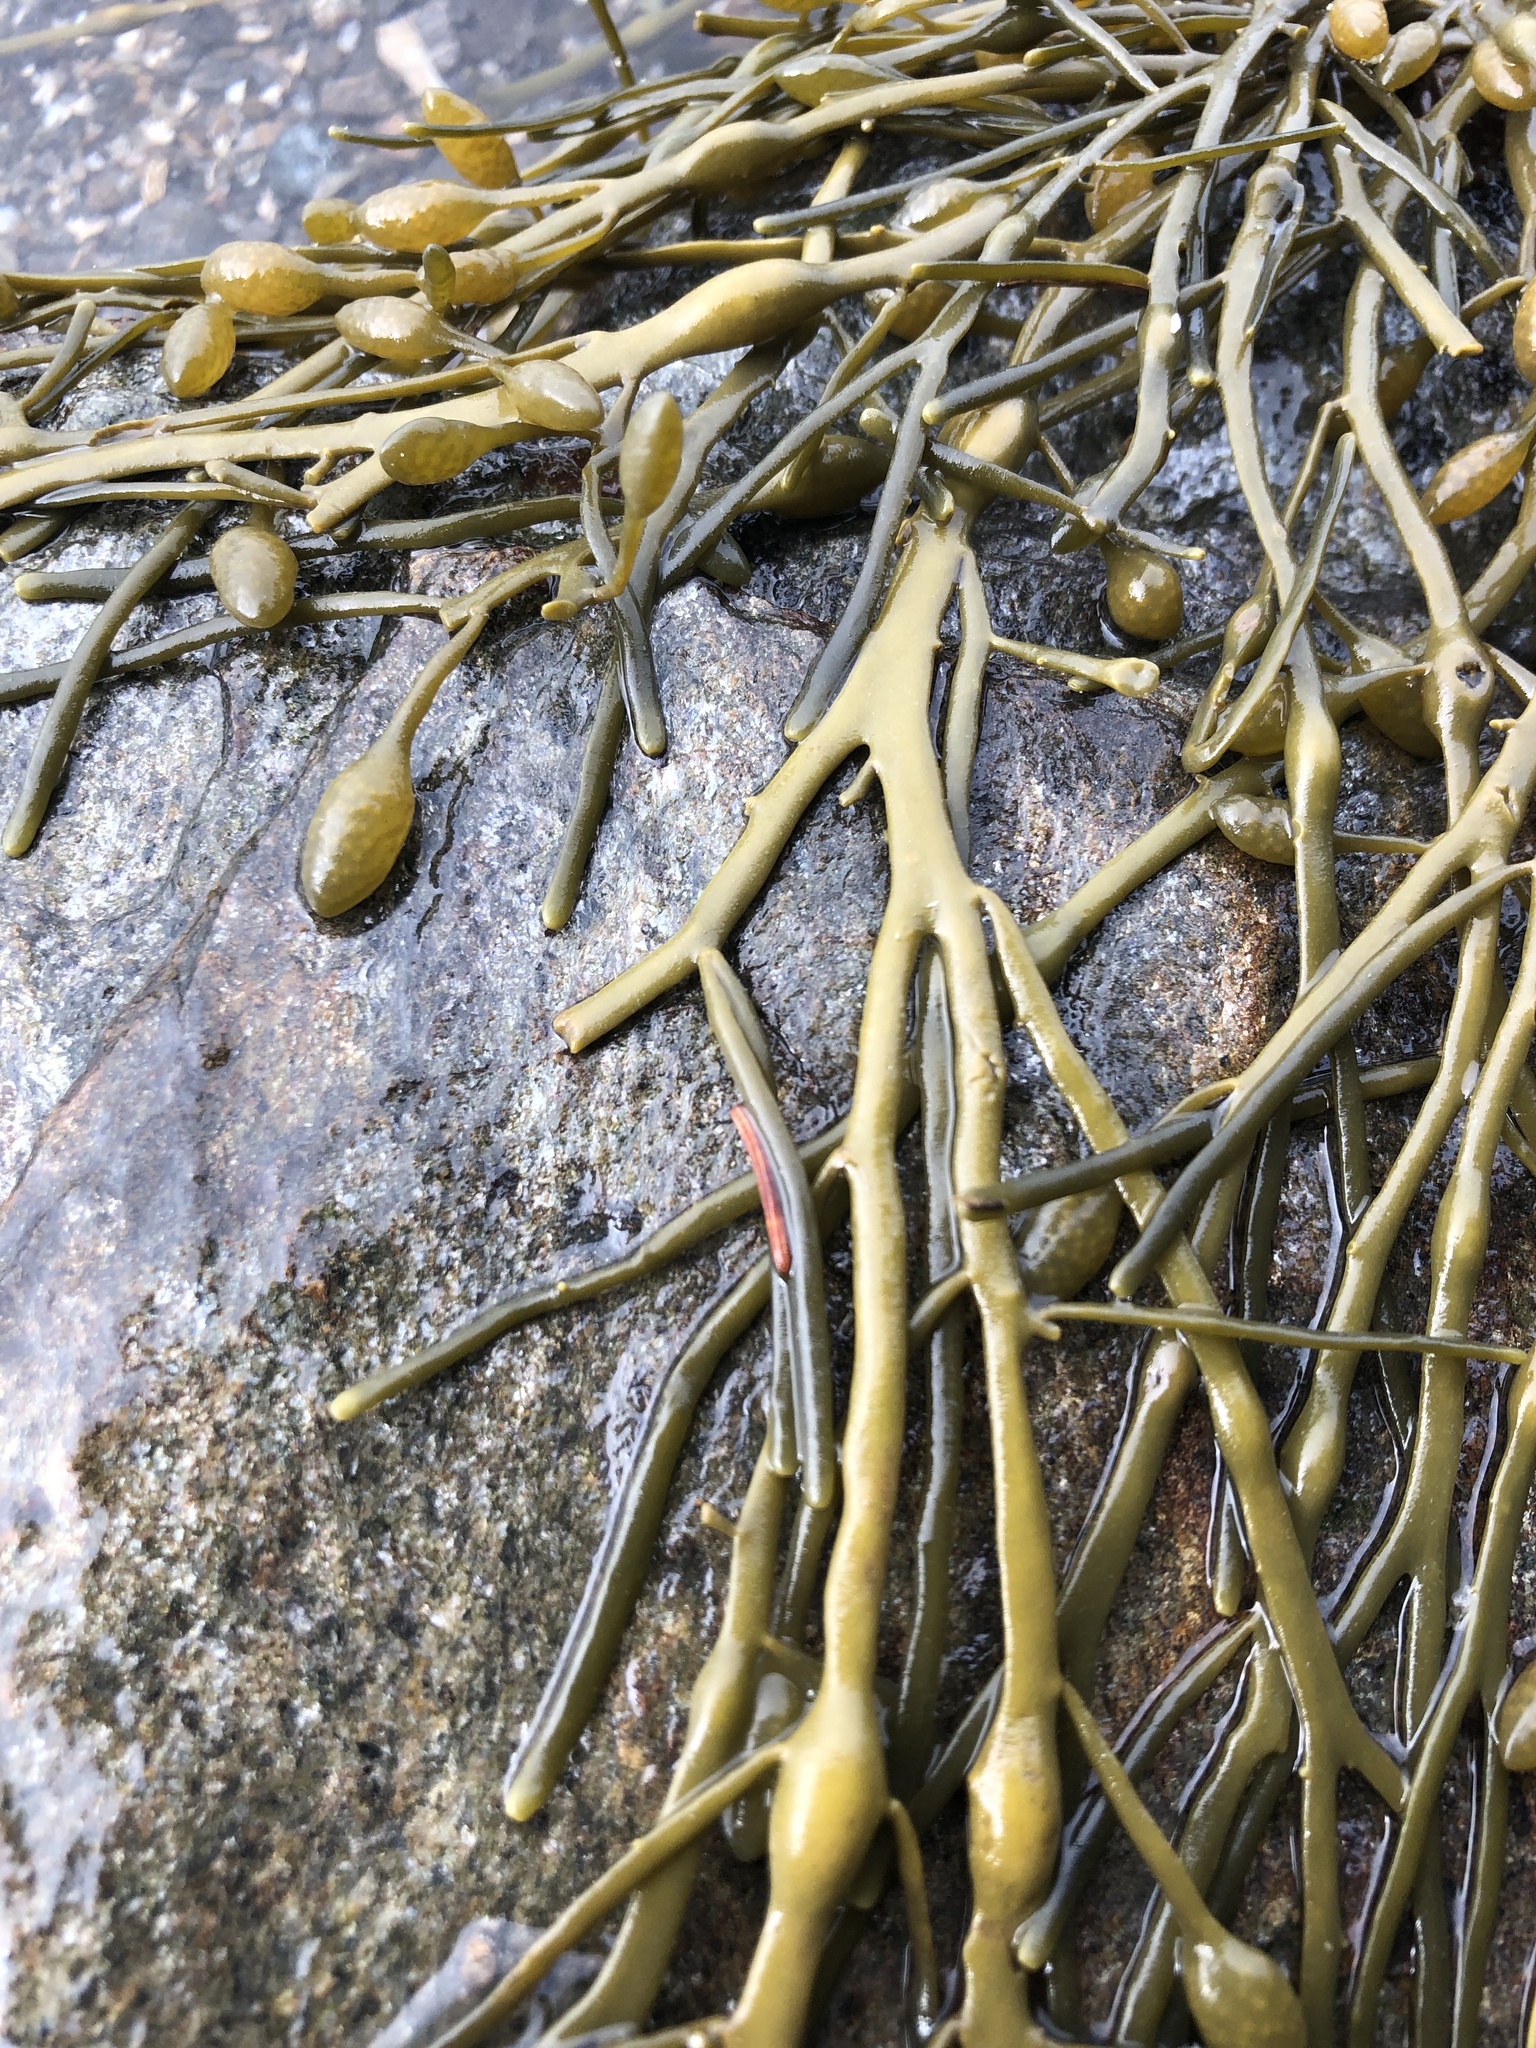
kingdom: Chromista
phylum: Ochrophyta
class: Phaeophyceae
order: Fucales
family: Fucaceae
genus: Ascophyllum
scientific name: Ascophyllum nodosum
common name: Knotted wrack
